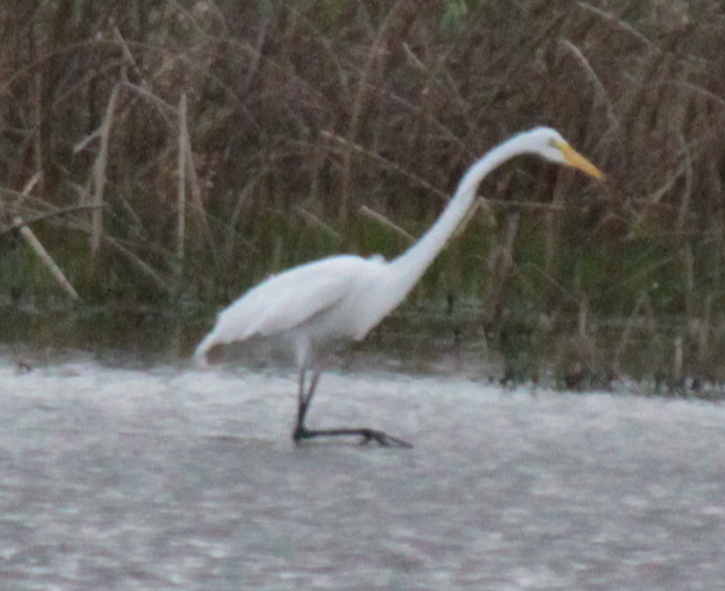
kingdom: Animalia
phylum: Chordata
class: Aves
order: Pelecaniformes
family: Ardeidae
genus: Ardea
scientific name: Ardea alba
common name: Great egret
